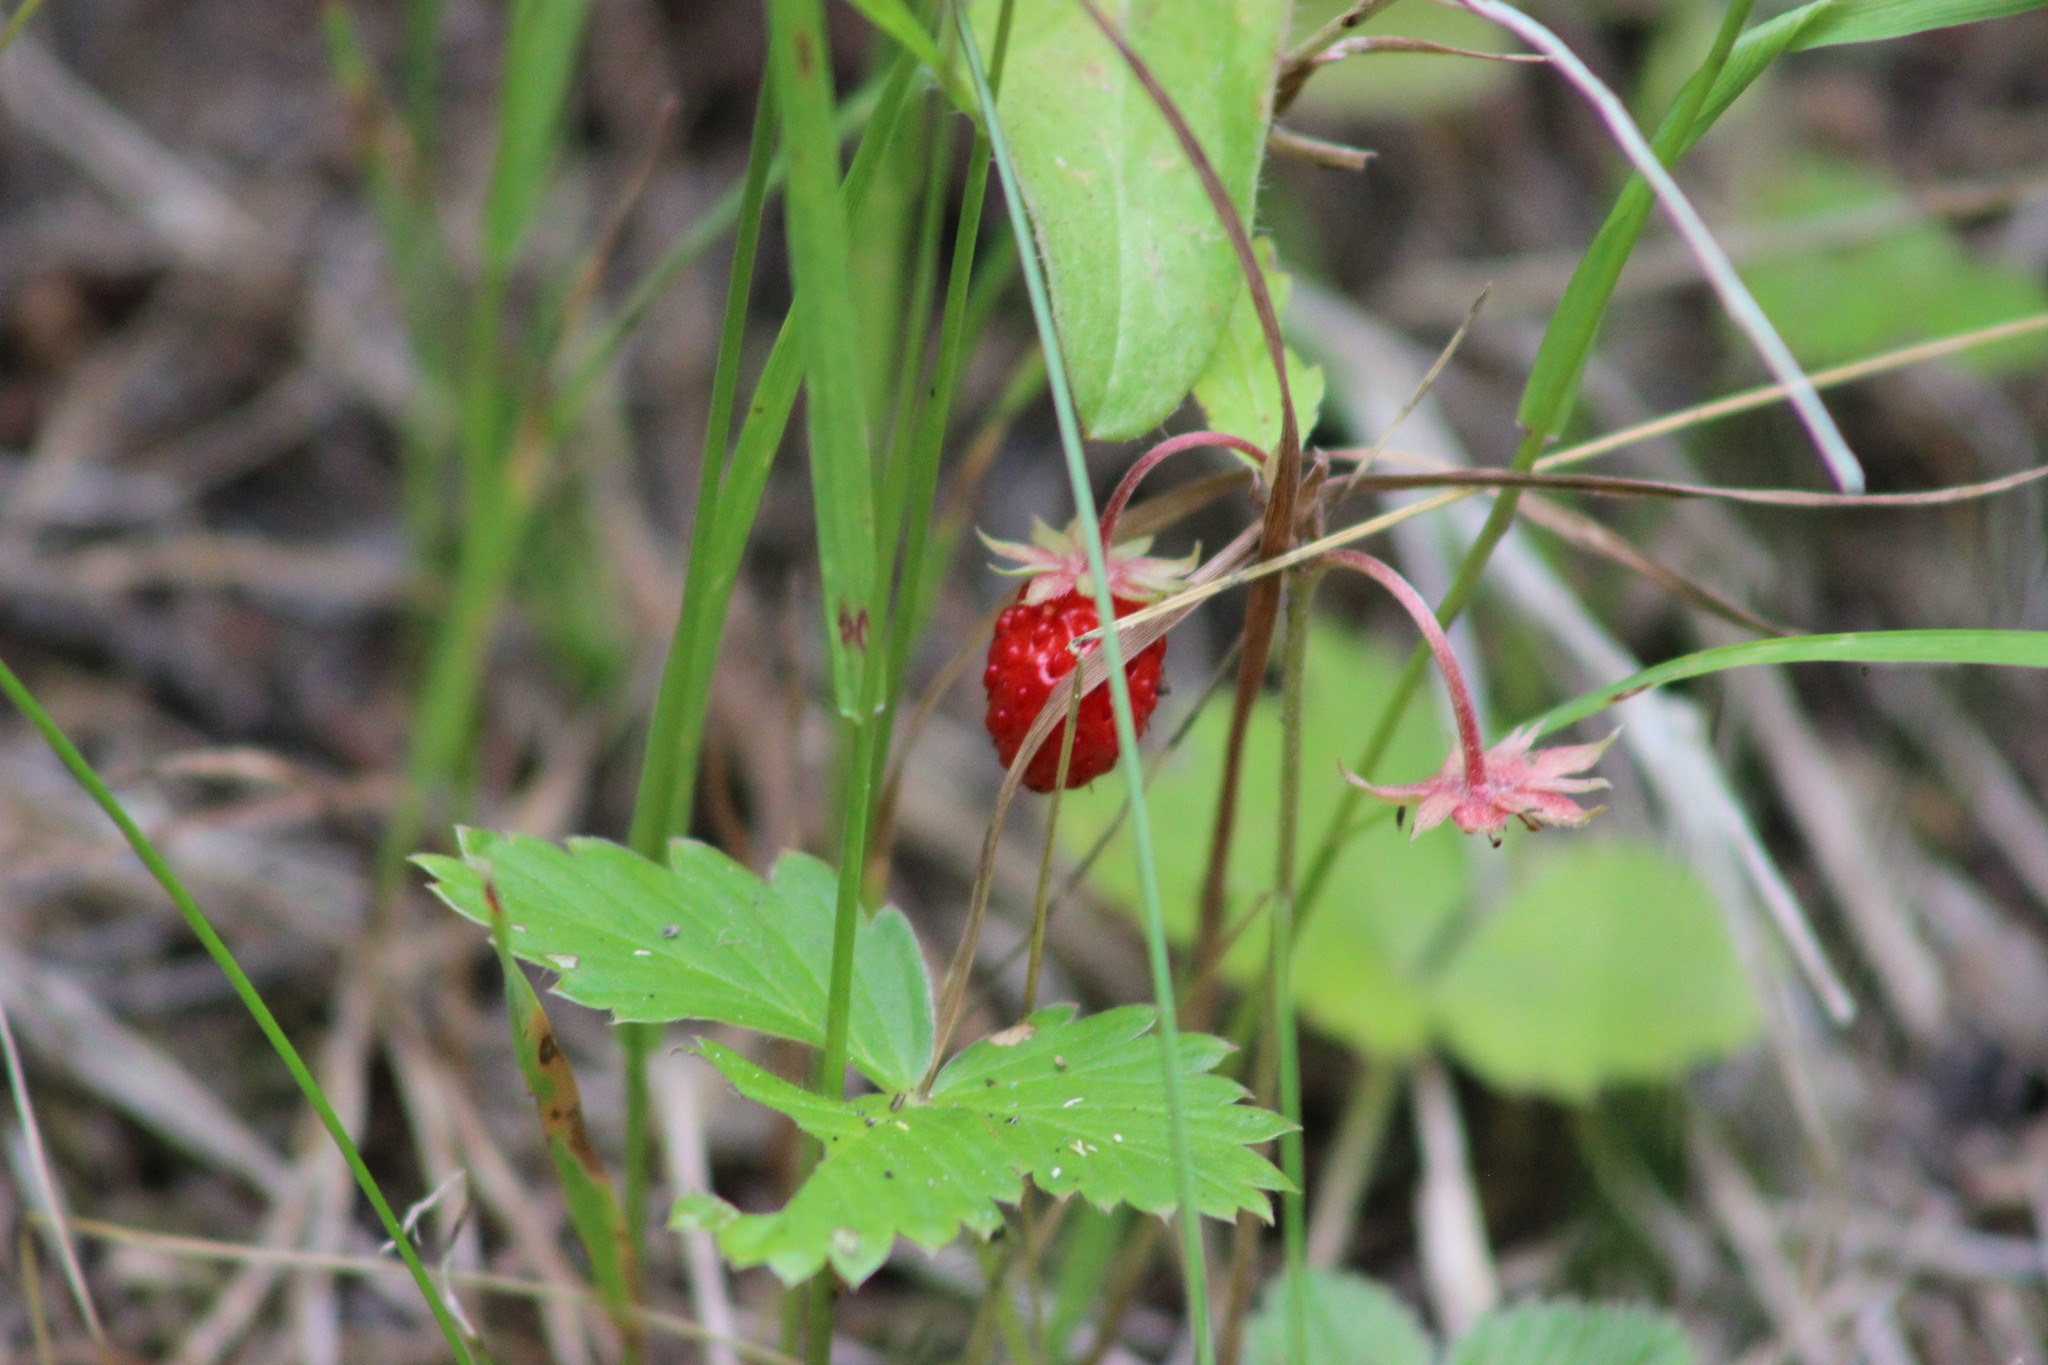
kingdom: Plantae
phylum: Tracheophyta
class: Magnoliopsida
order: Rosales
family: Rosaceae
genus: Fragaria
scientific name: Fragaria vesca
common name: Wild strawberry
